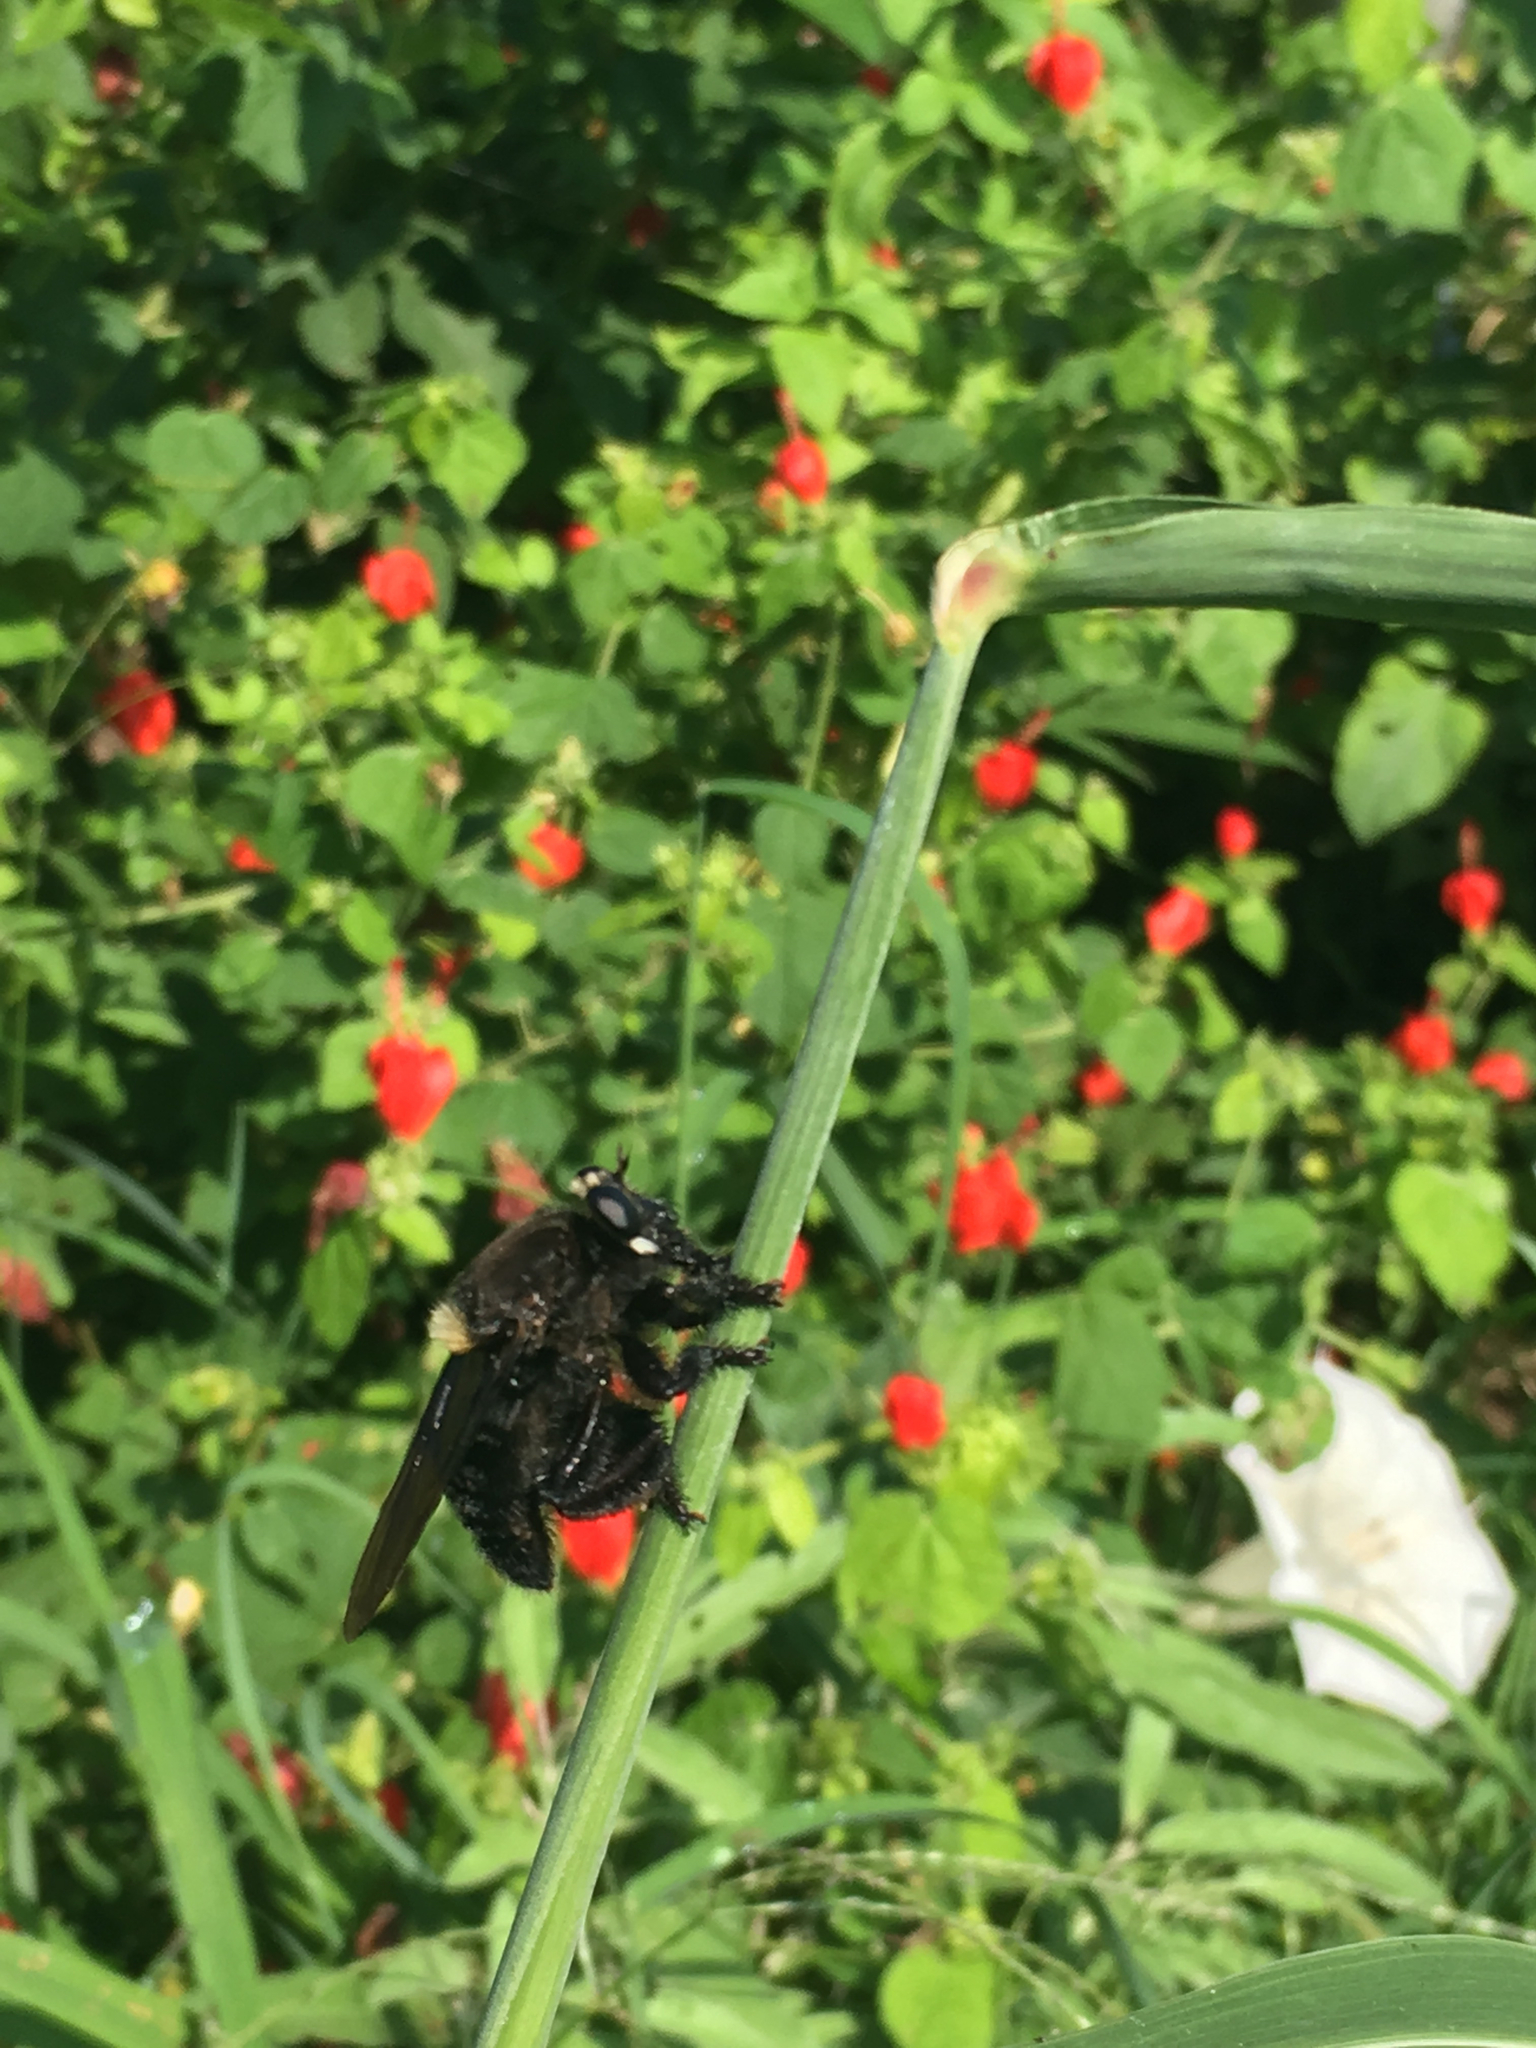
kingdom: Animalia
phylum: Arthropoda
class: Insecta
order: Diptera
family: Asilidae
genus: Mallophora
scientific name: Mallophora leschenaultii
